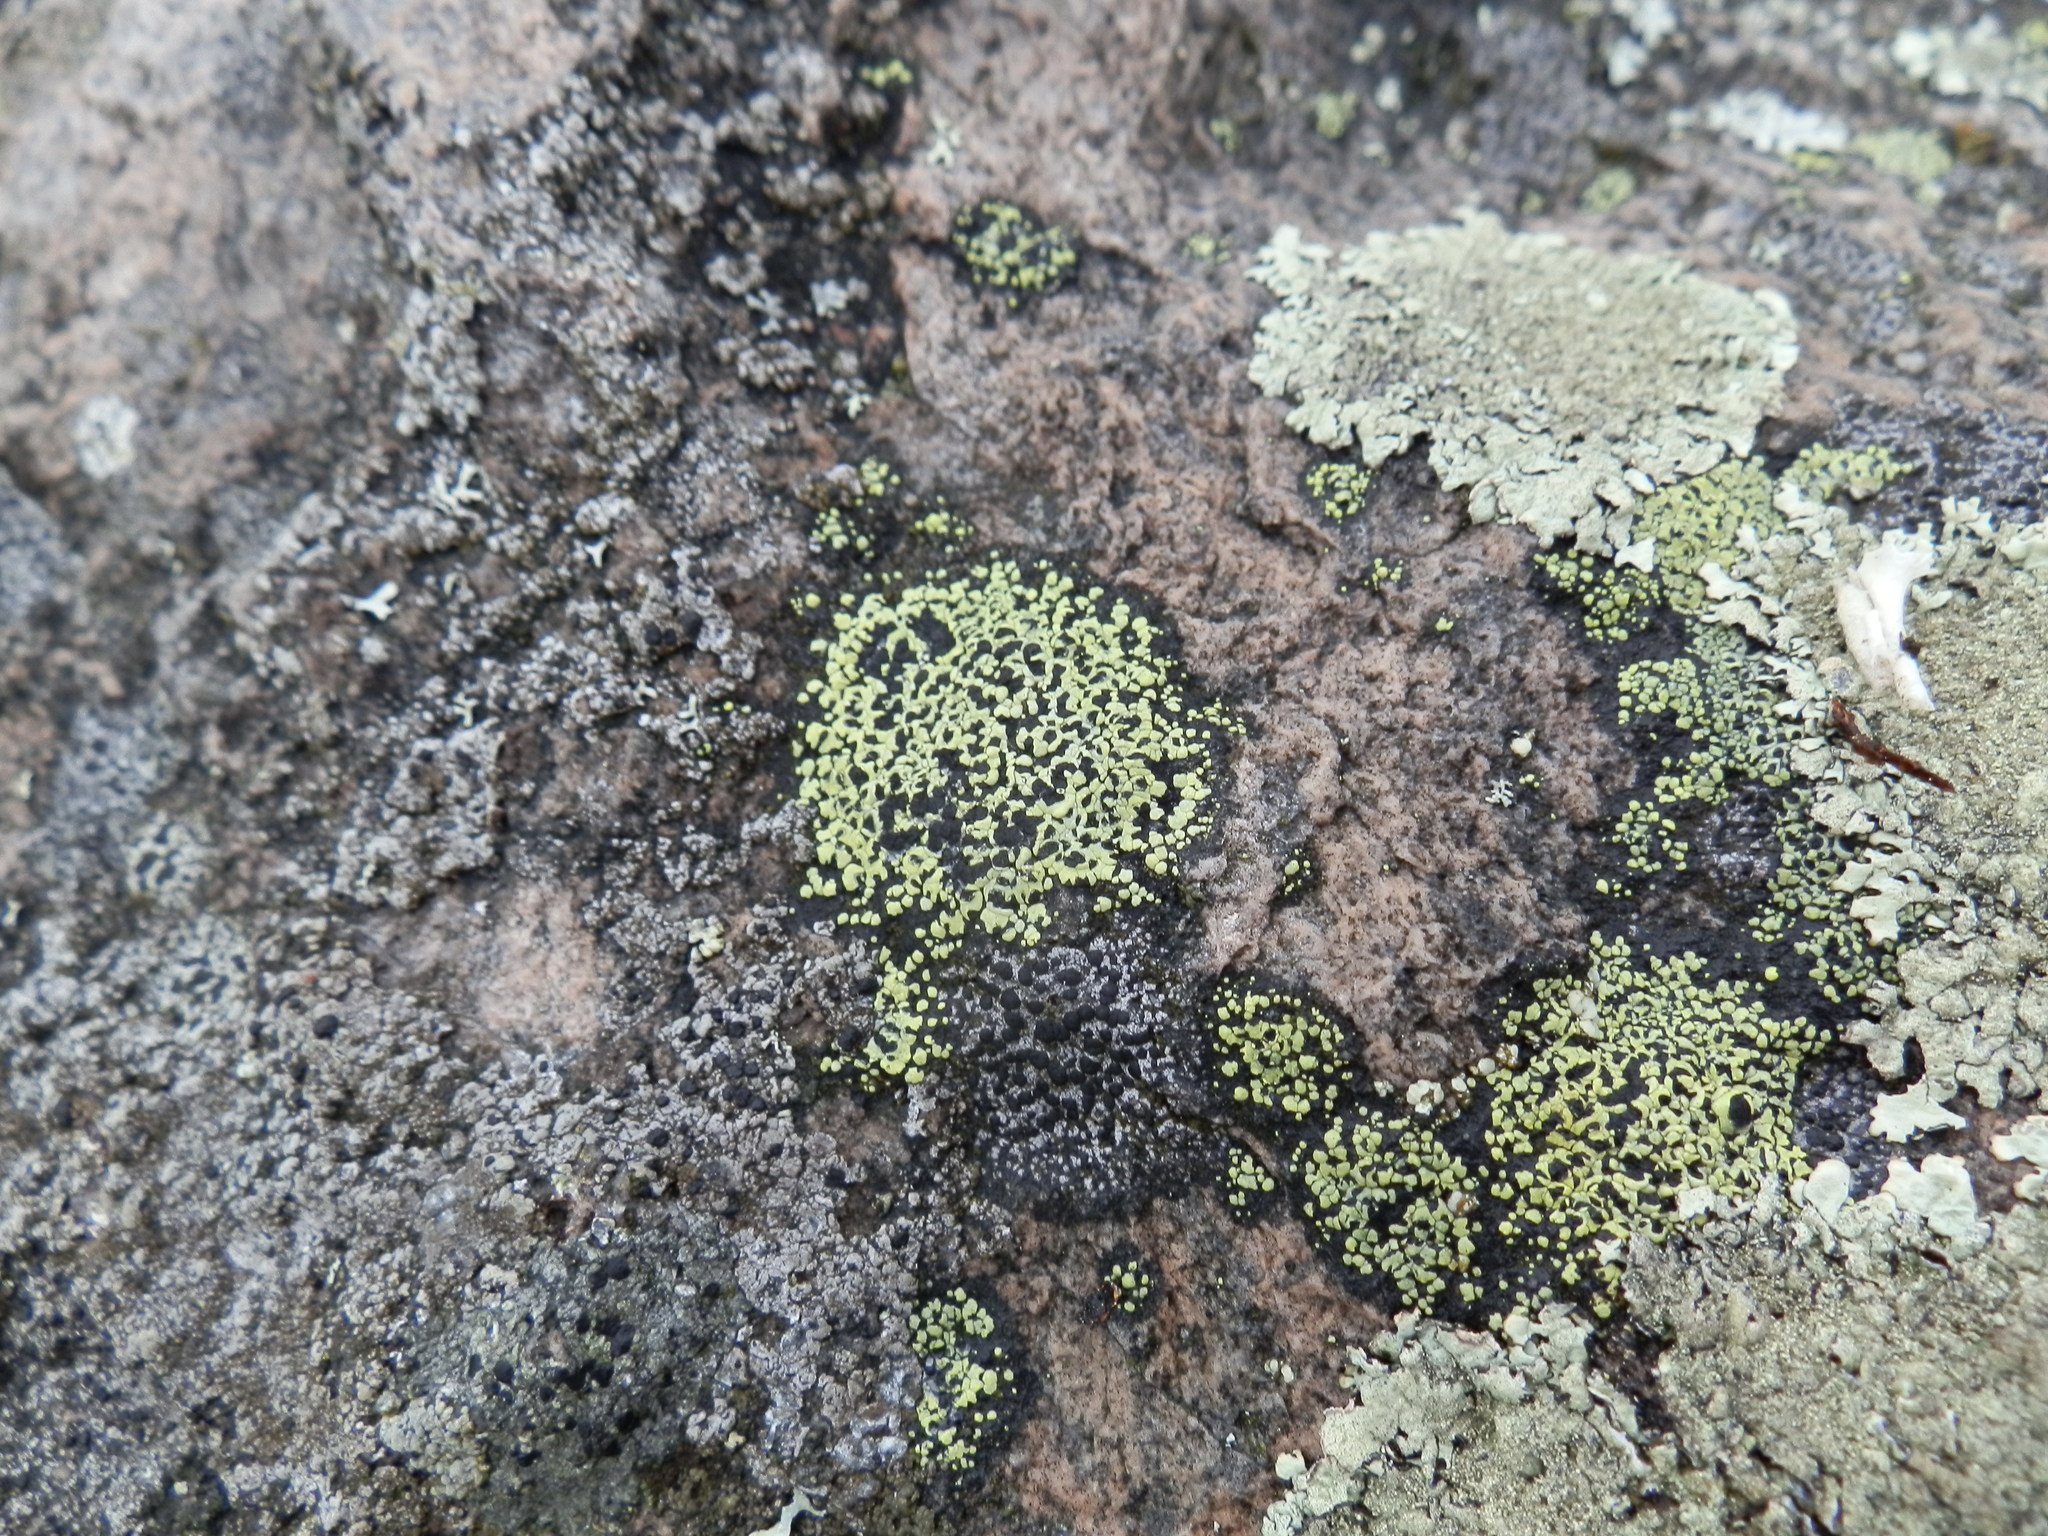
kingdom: Fungi
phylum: Ascomycota
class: Lecanoromycetes
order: Rhizocarpales
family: Rhizocarpaceae
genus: Rhizocarpon
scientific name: Rhizocarpon geographicum
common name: Yellow map lichen
